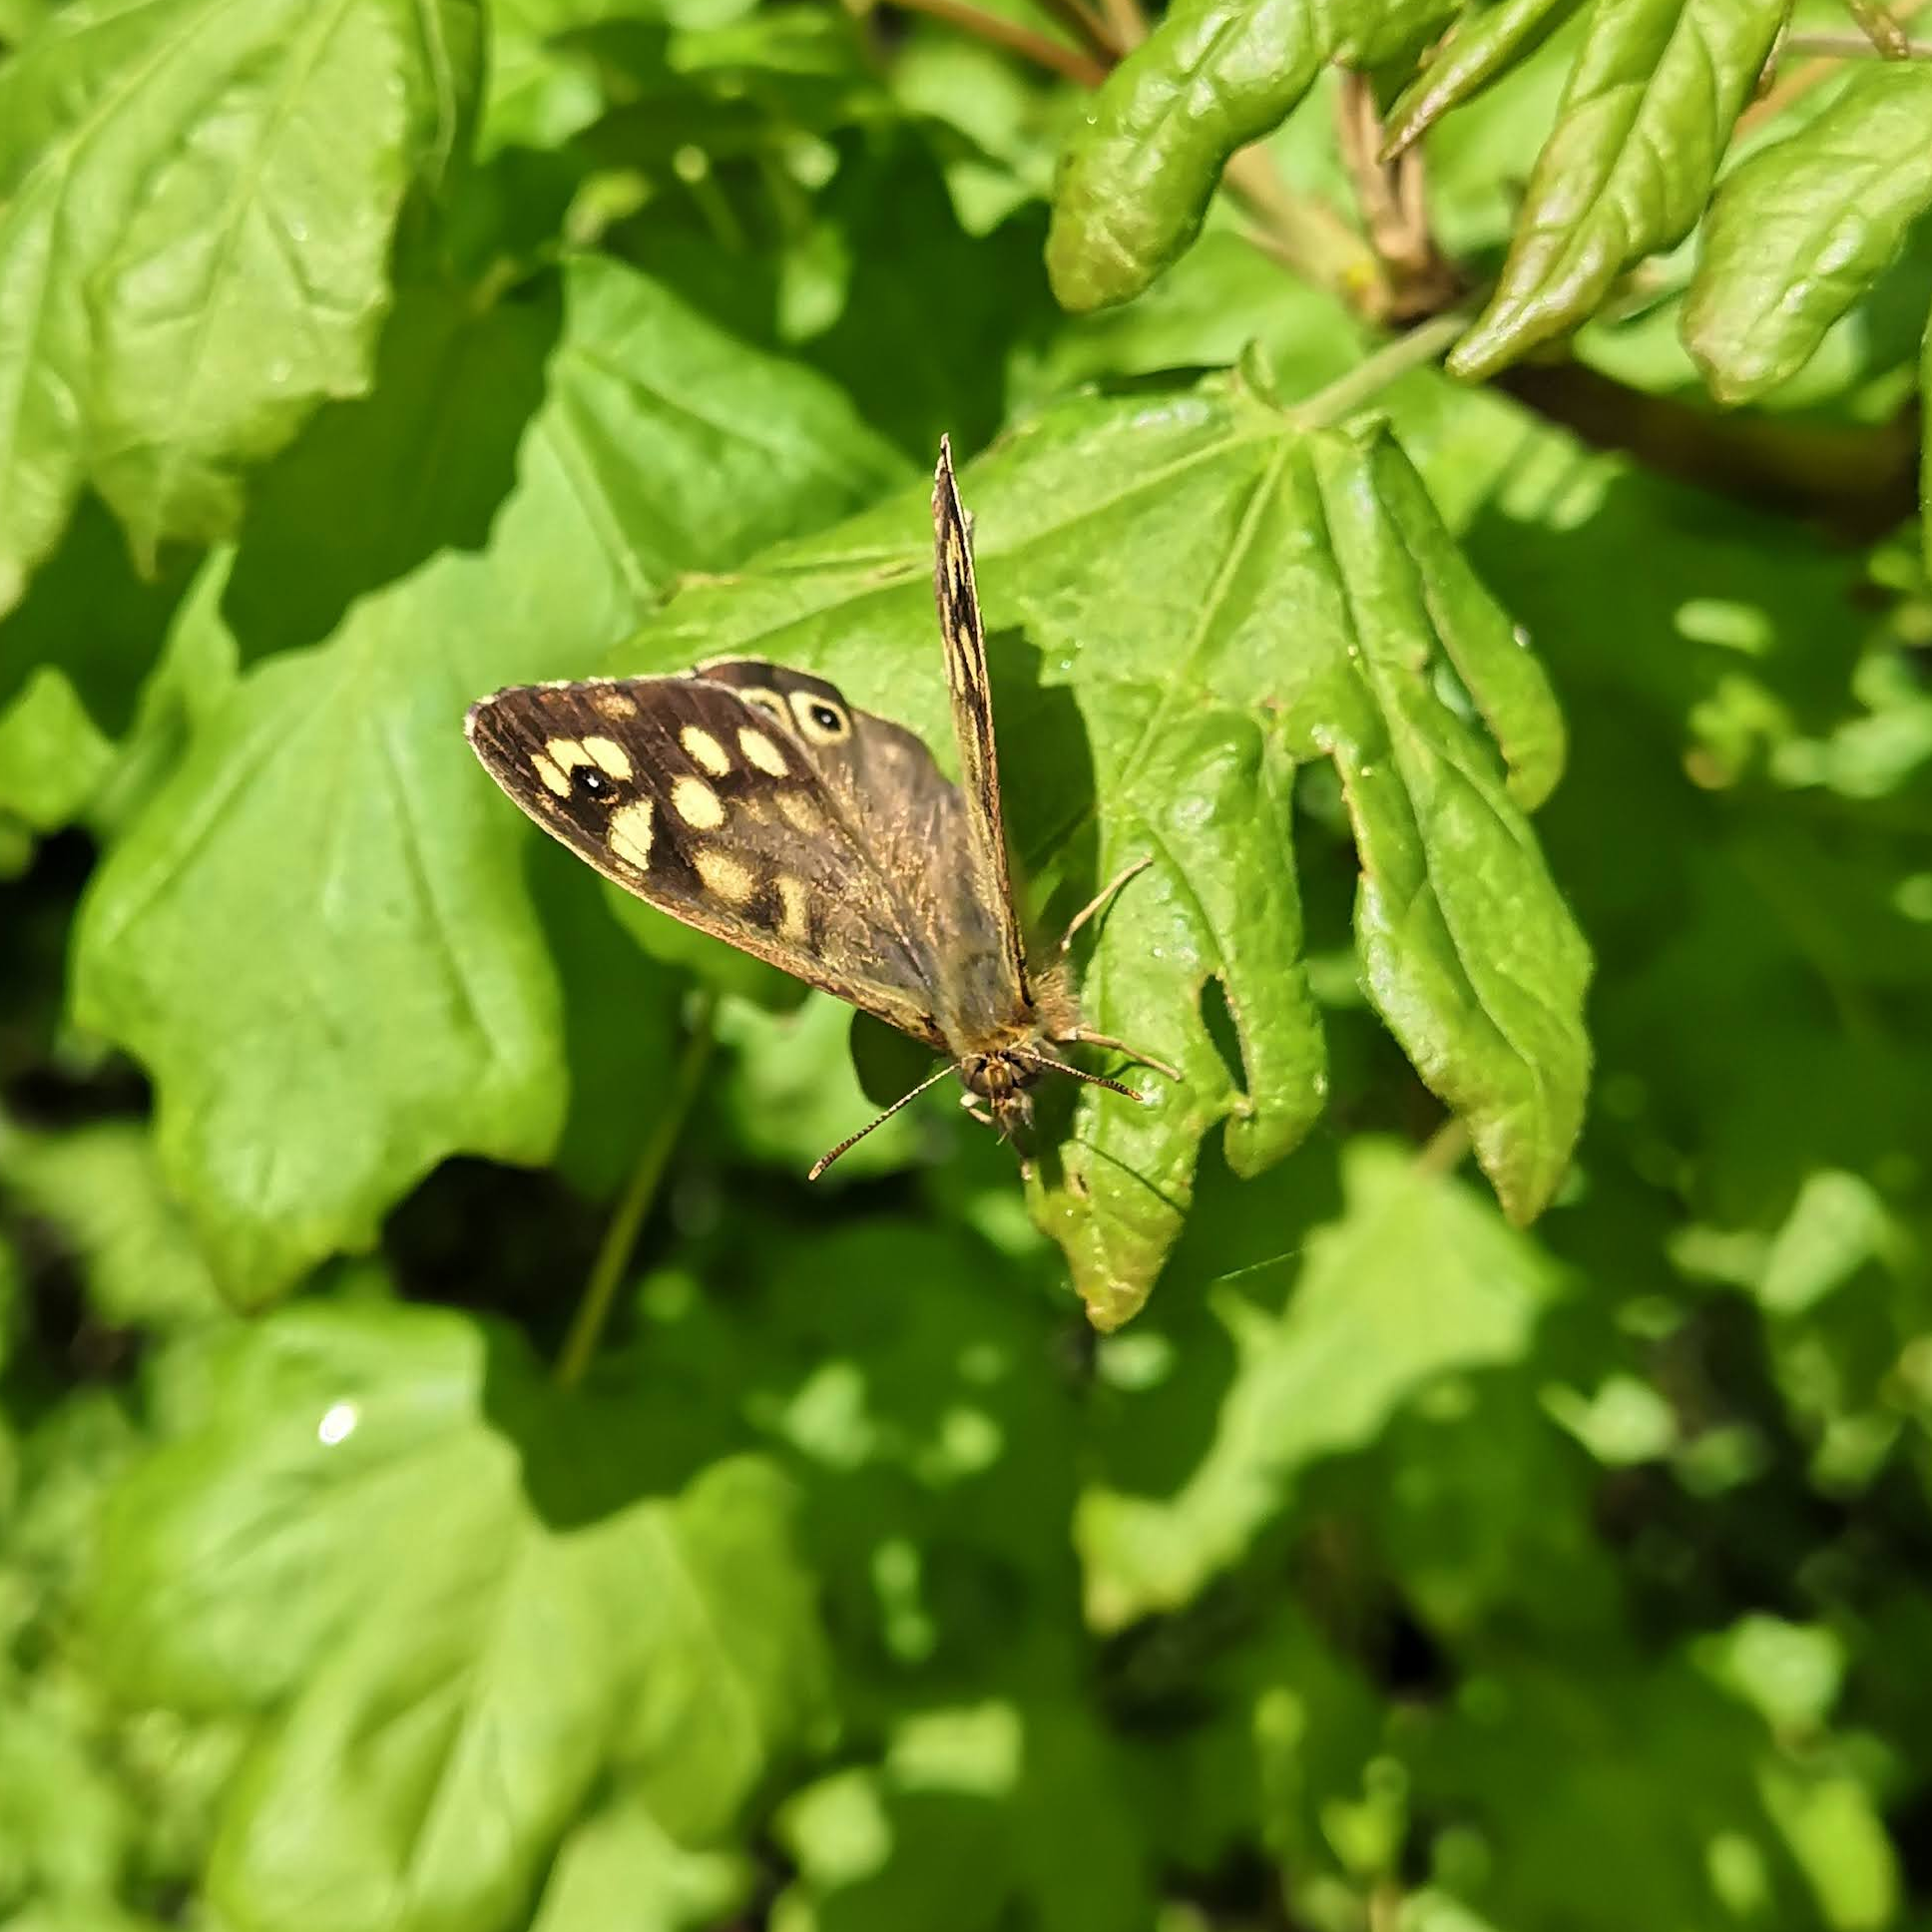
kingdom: Animalia
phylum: Arthropoda
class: Insecta
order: Lepidoptera
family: Nymphalidae
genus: Pararge
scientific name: Pararge aegeria
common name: Speckled wood
